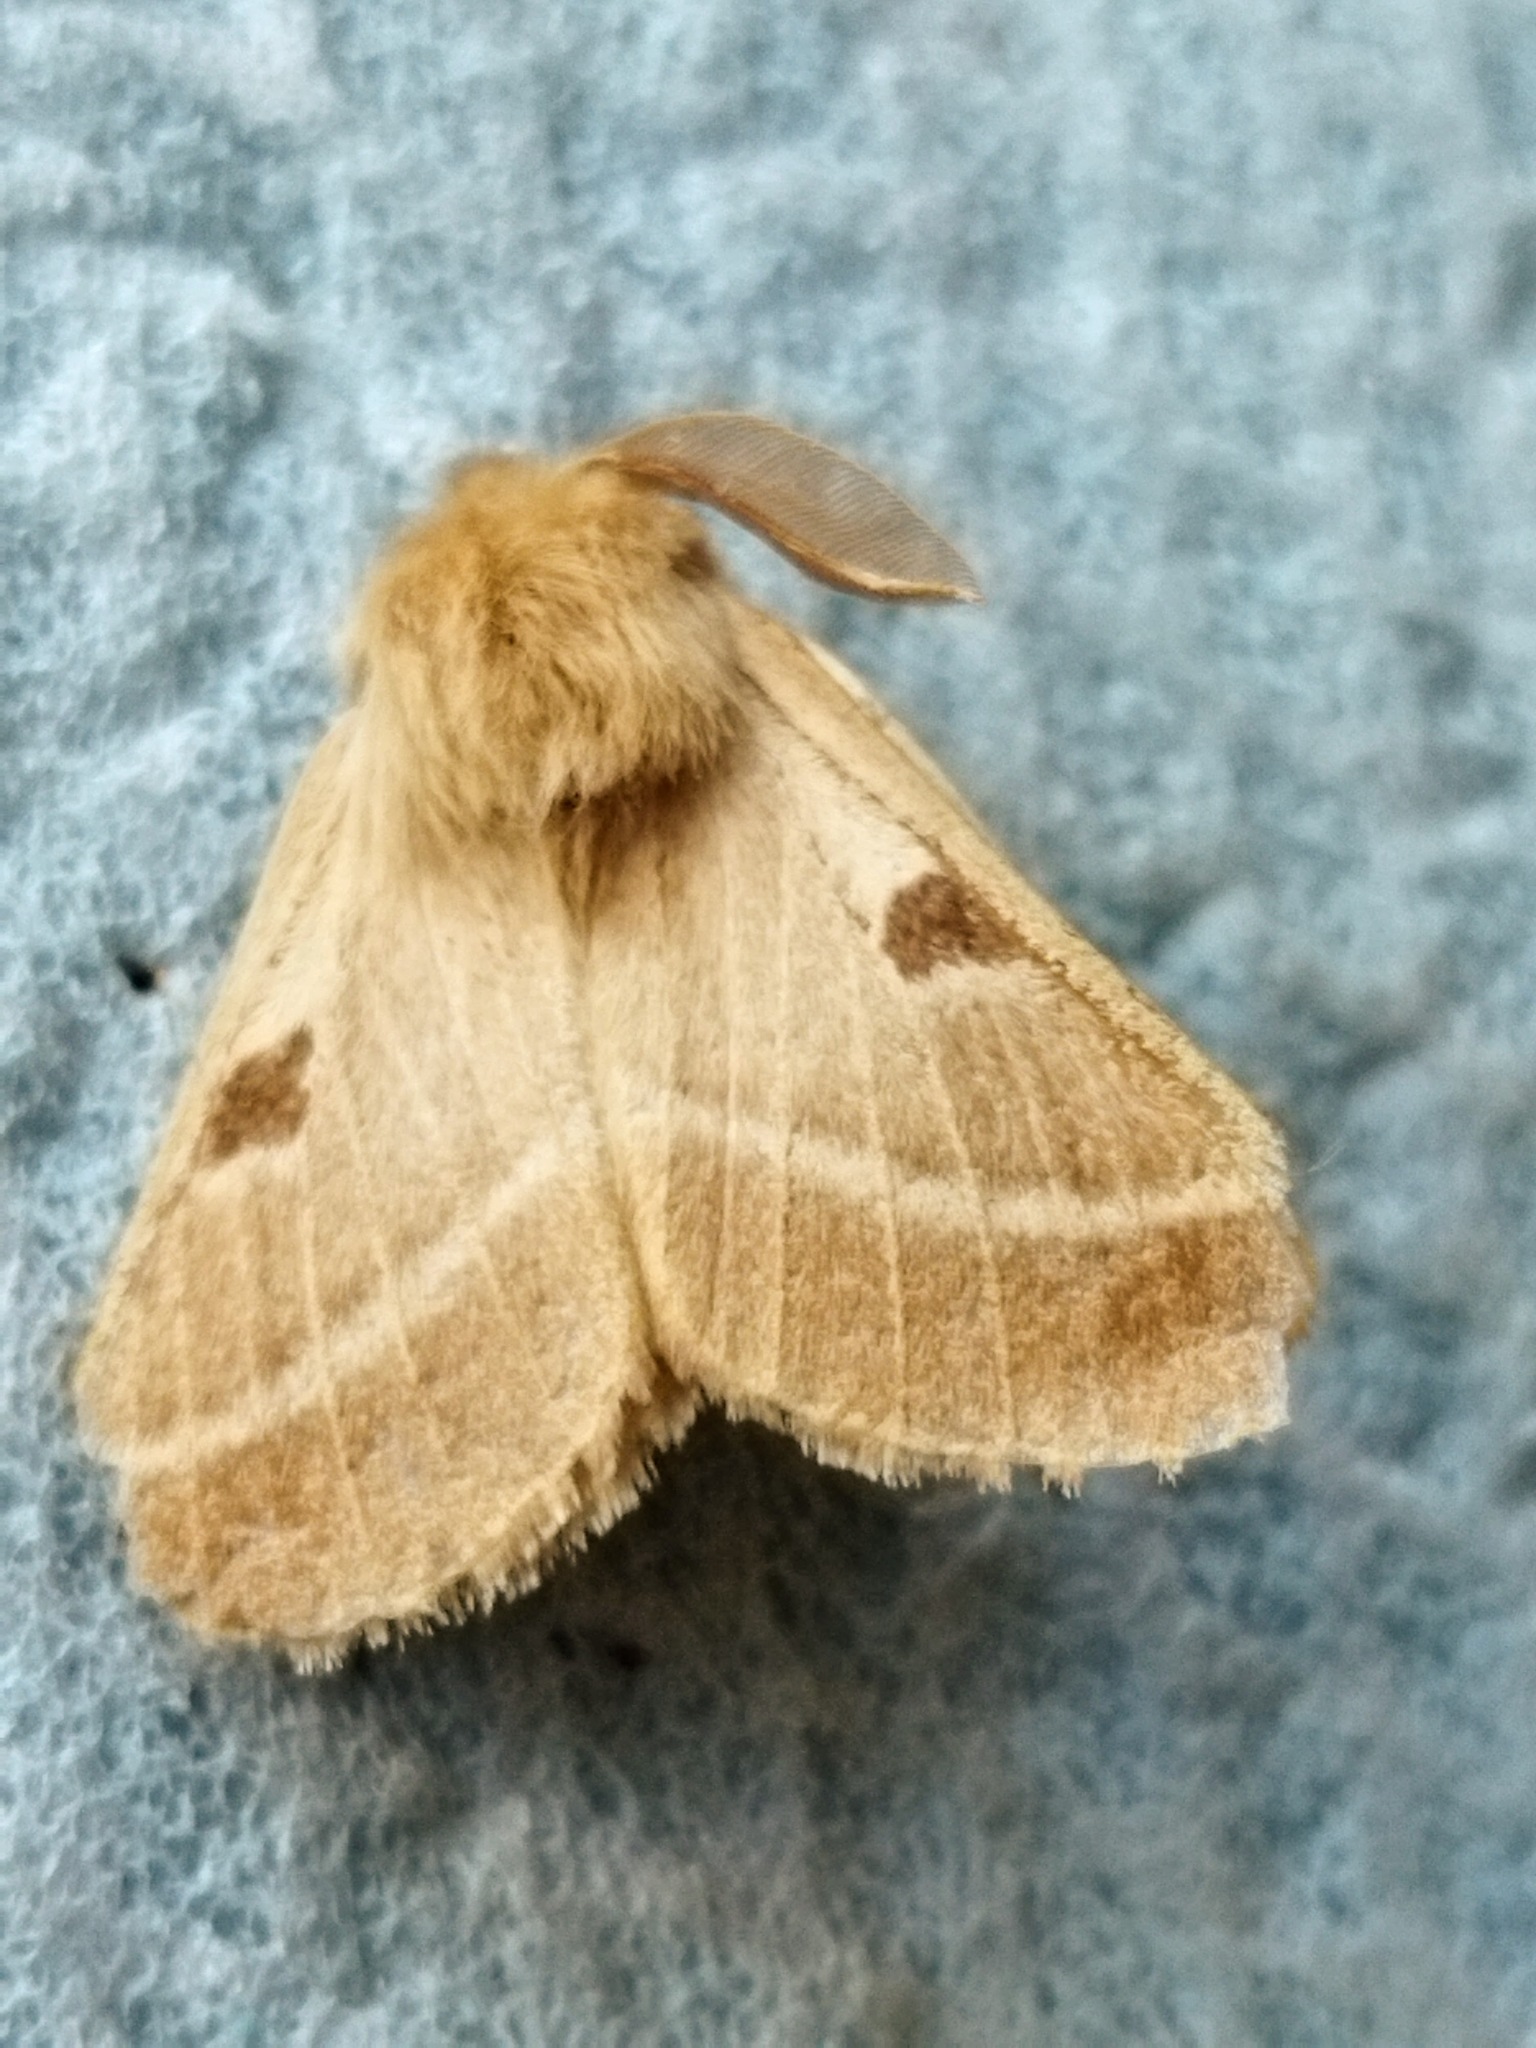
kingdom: Animalia
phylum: Arthropoda
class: Insecta
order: Lepidoptera
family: Brahmaeidae
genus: Lemonia
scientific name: Lemonia balcanica
